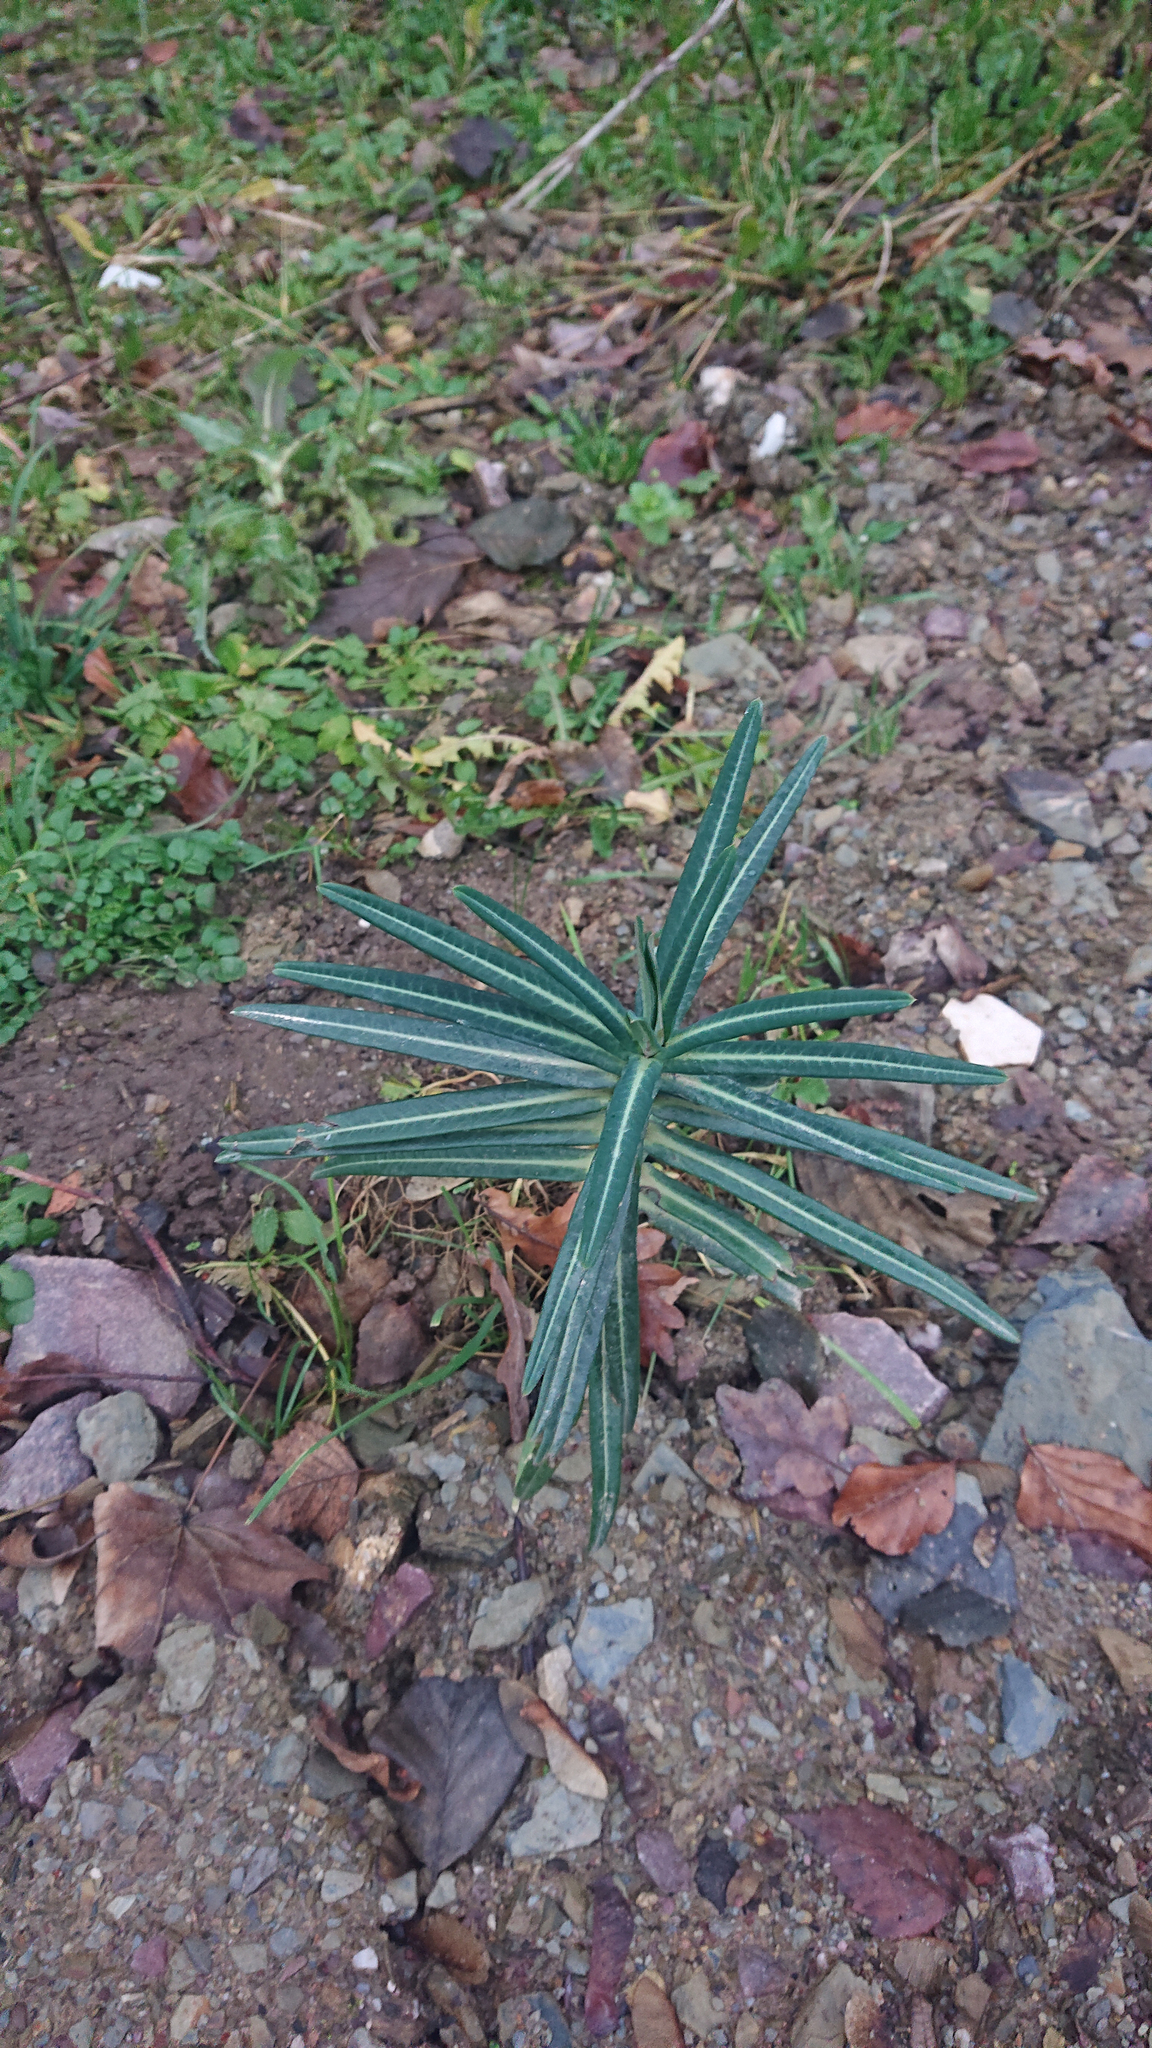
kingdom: Plantae
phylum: Tracheophyta
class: Magnoliopsida
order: Malpighiales
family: Euphorbiaceae
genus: Euphorbia
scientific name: Euphorbia lathyris
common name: Caper spurge
